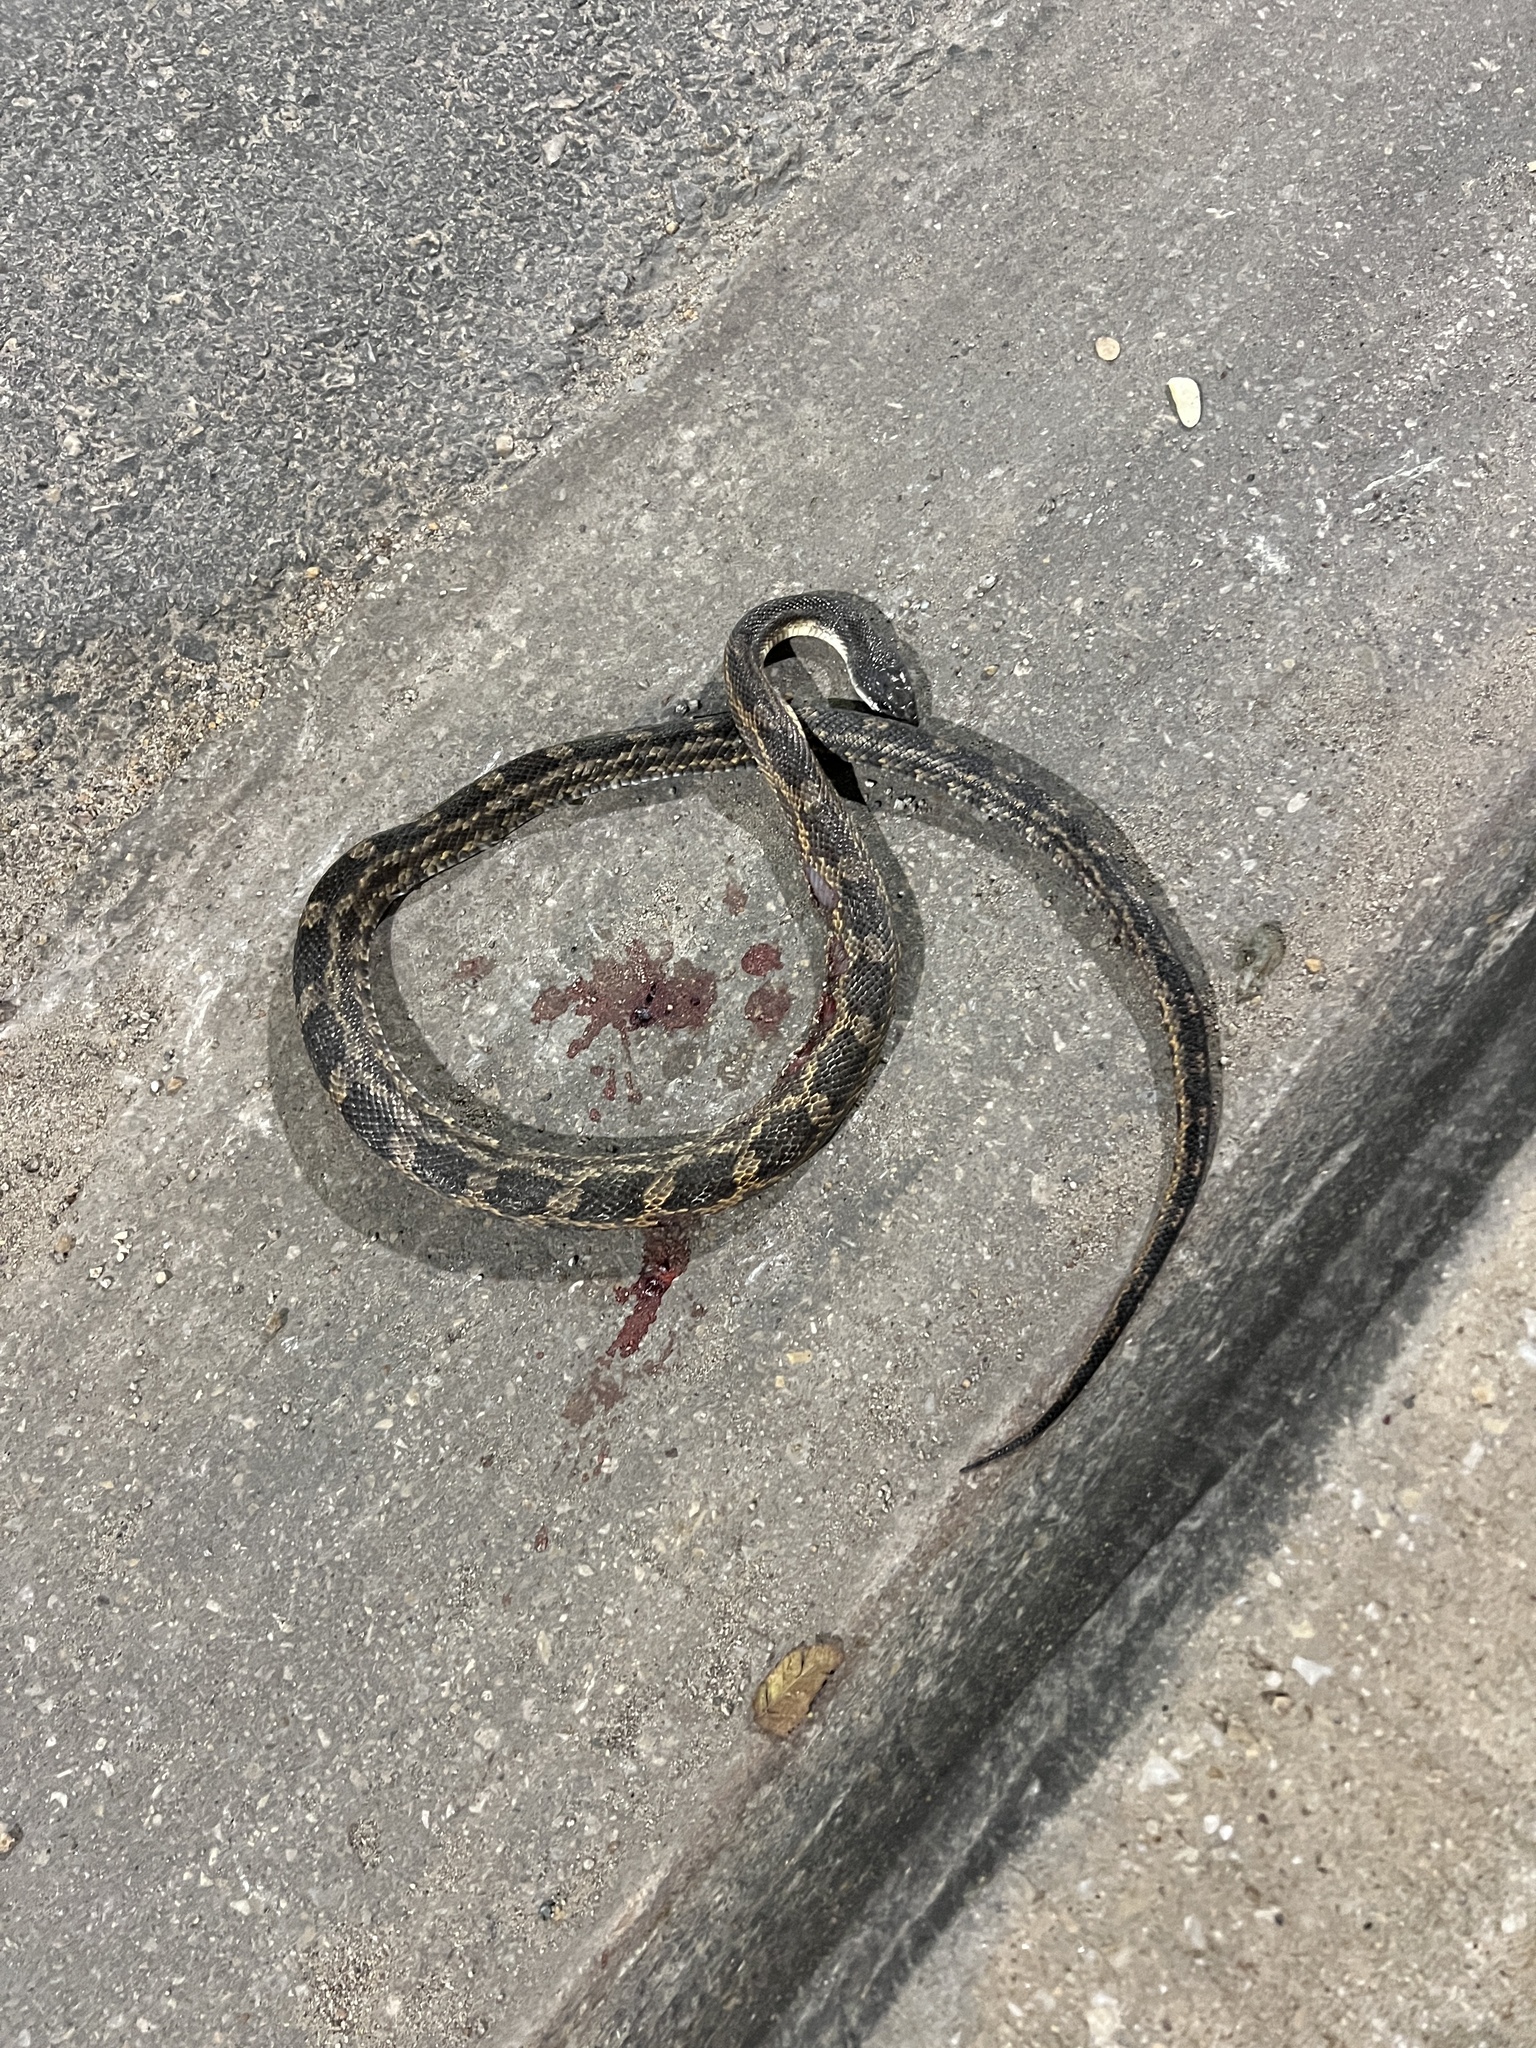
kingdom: Animalia
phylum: Chordata
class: Squamata
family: Colubridae
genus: Pantherophis
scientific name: Pantherophis obsoletus
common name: Black rat snake
